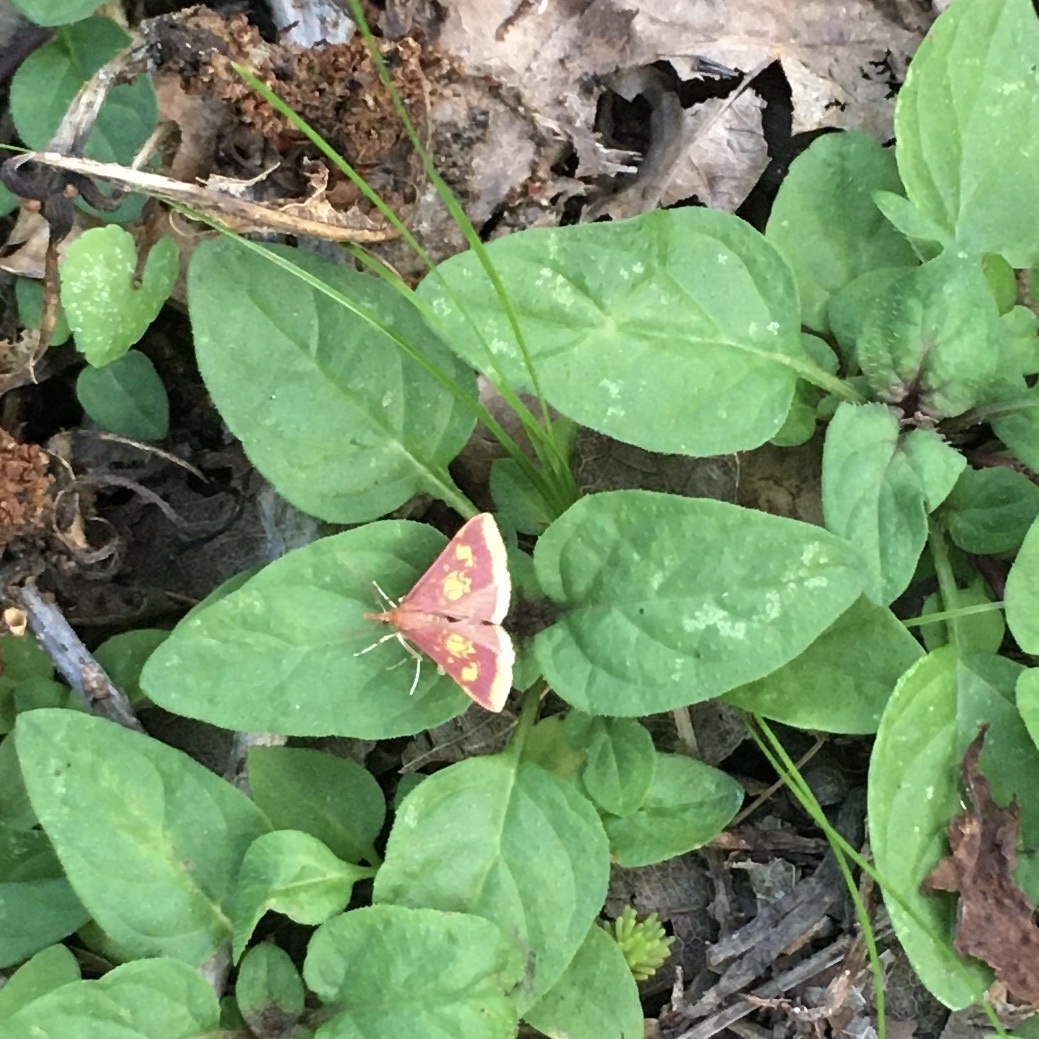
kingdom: Animalia
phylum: Arthropoda
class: Insecta
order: Lepidoptera
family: Crambidae
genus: Pyrausta
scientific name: Pyrausta acrionalis
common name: Mint-loving pyrausta moth
